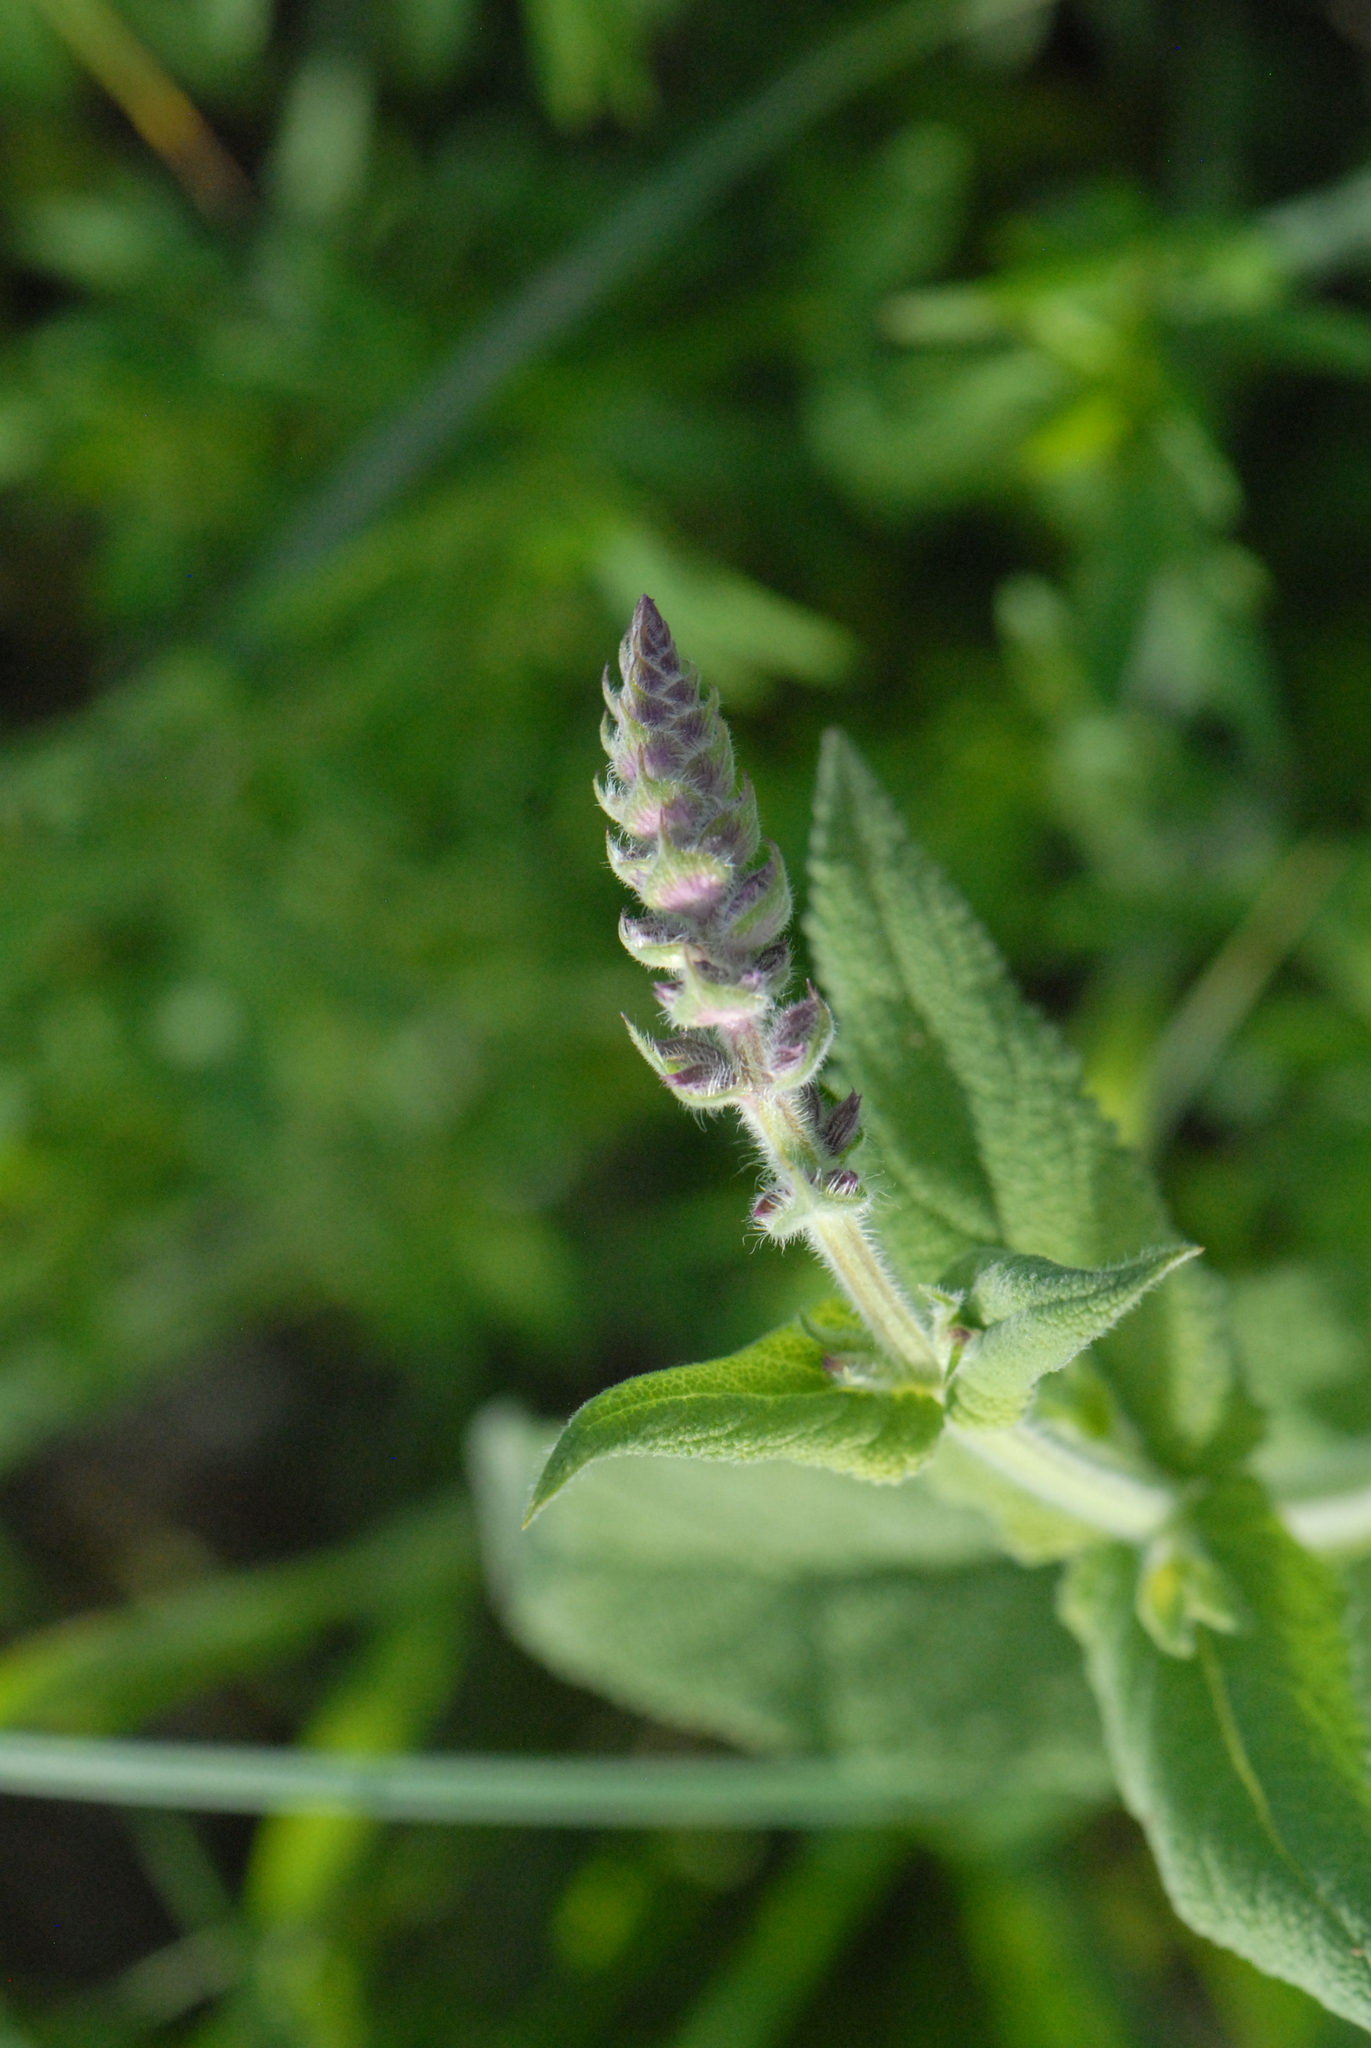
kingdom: Plantae
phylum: Tracheophyta
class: Magnoliopsida
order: Lamiales
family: Lamiaceae
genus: Salvia
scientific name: Salvia nemorosa
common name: Balkan clary
